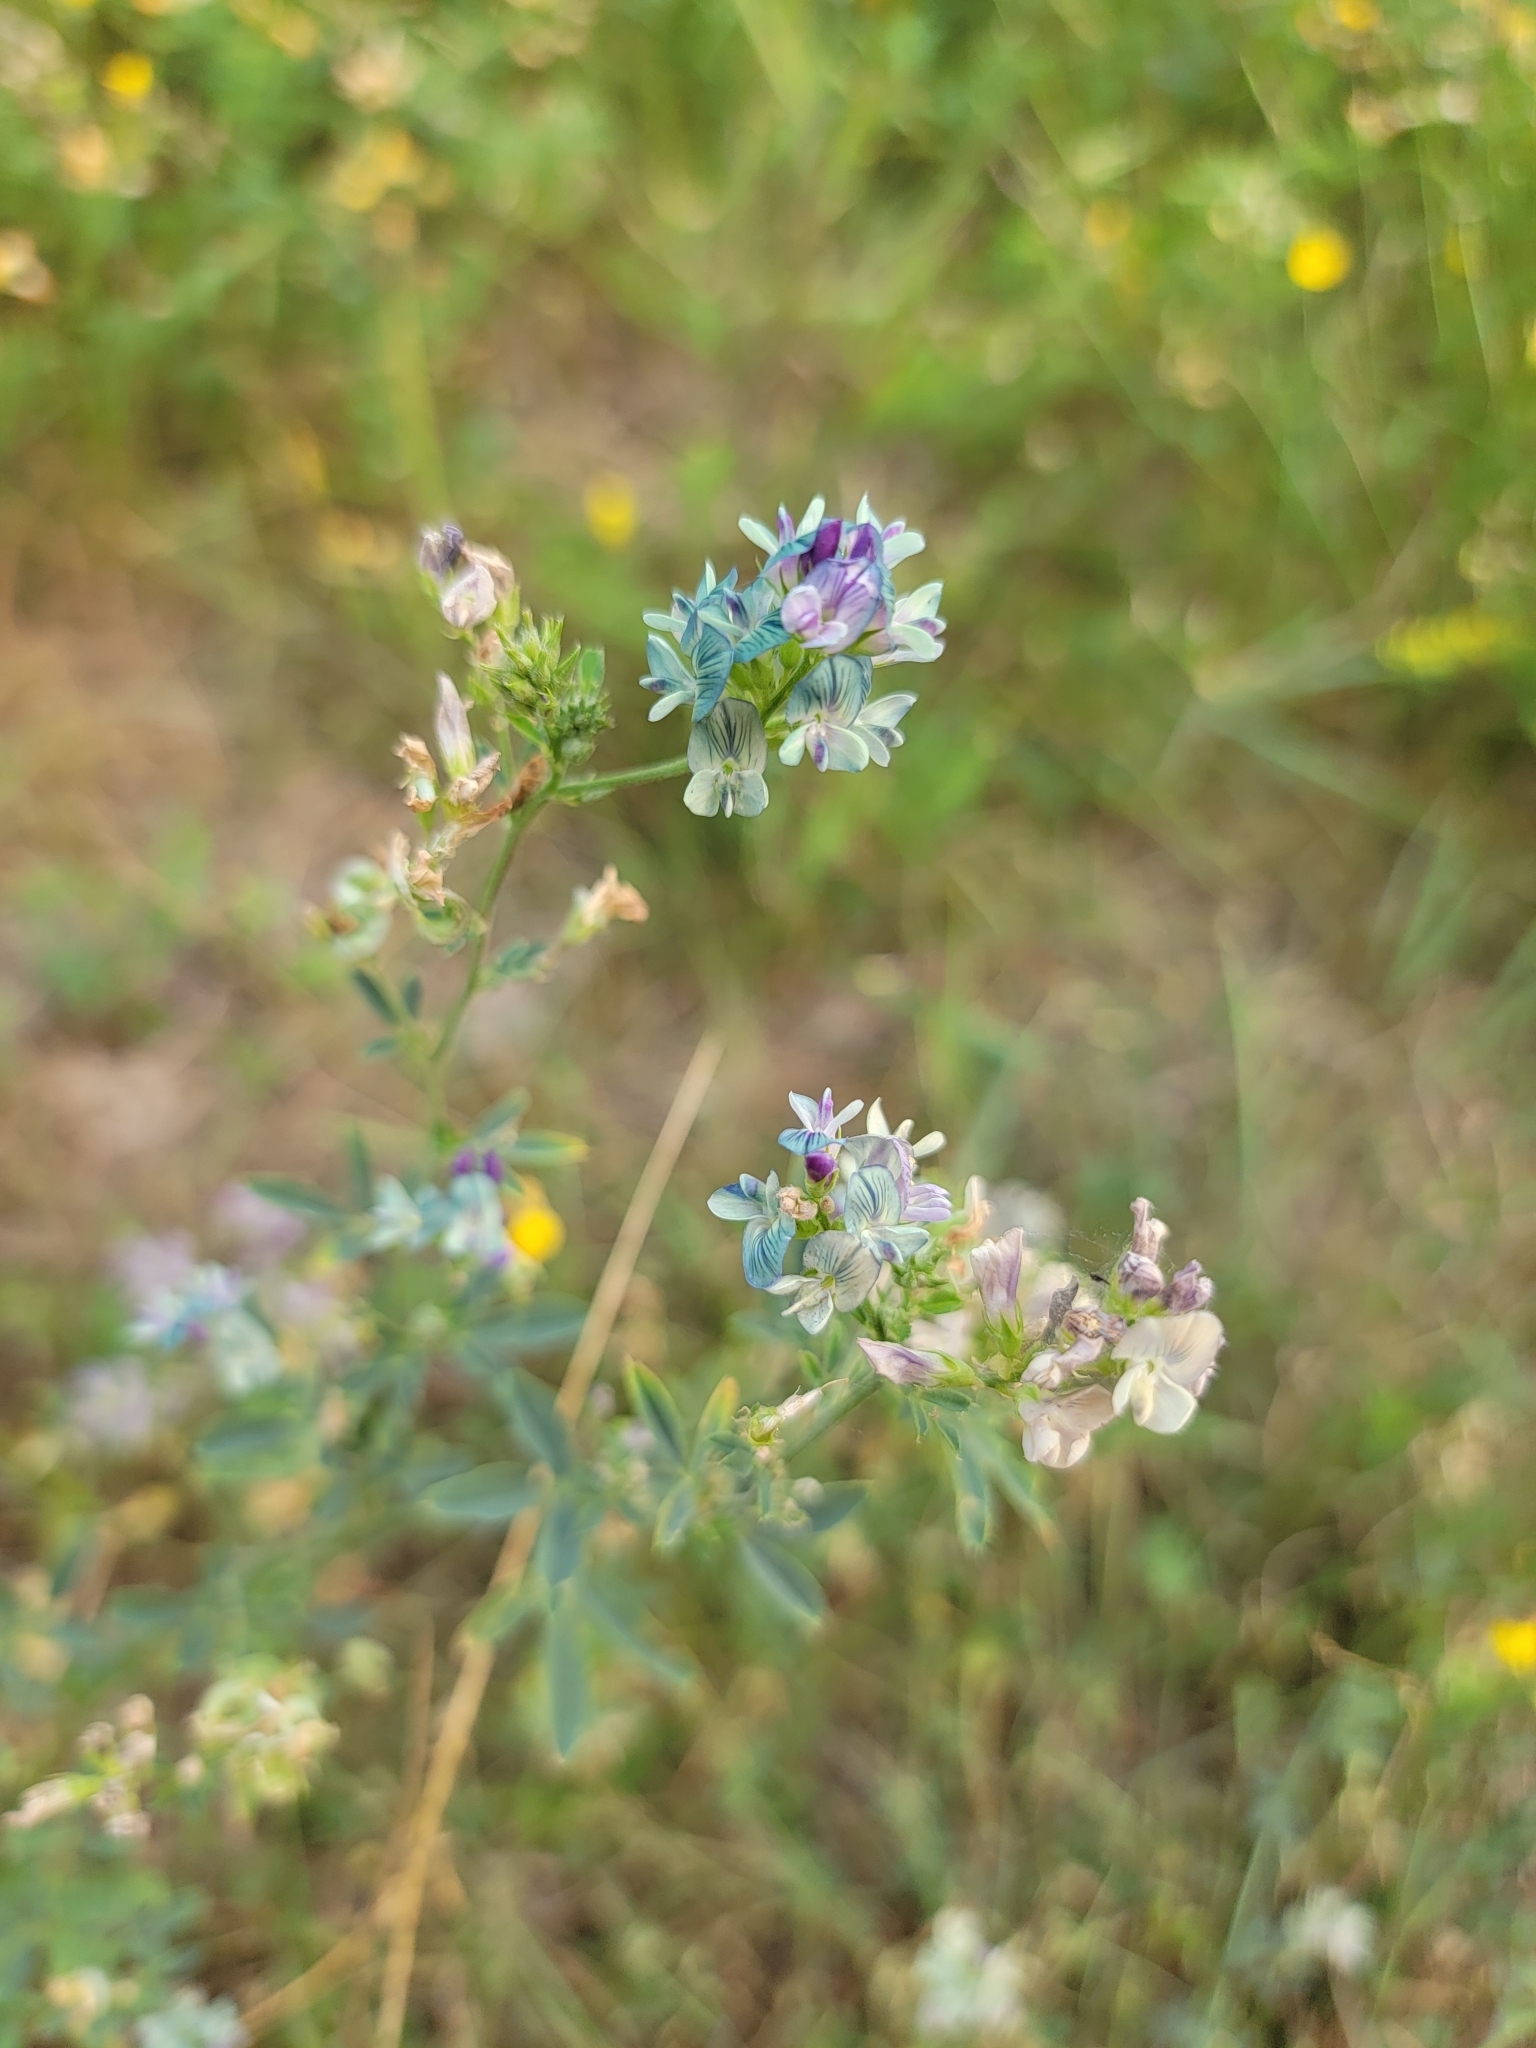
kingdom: Plantae
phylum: Tracheophyta
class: Magnoliopsida
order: Fabales
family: Fabaceae
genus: Medicago
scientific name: Medicago sativa
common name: Alfalfa
